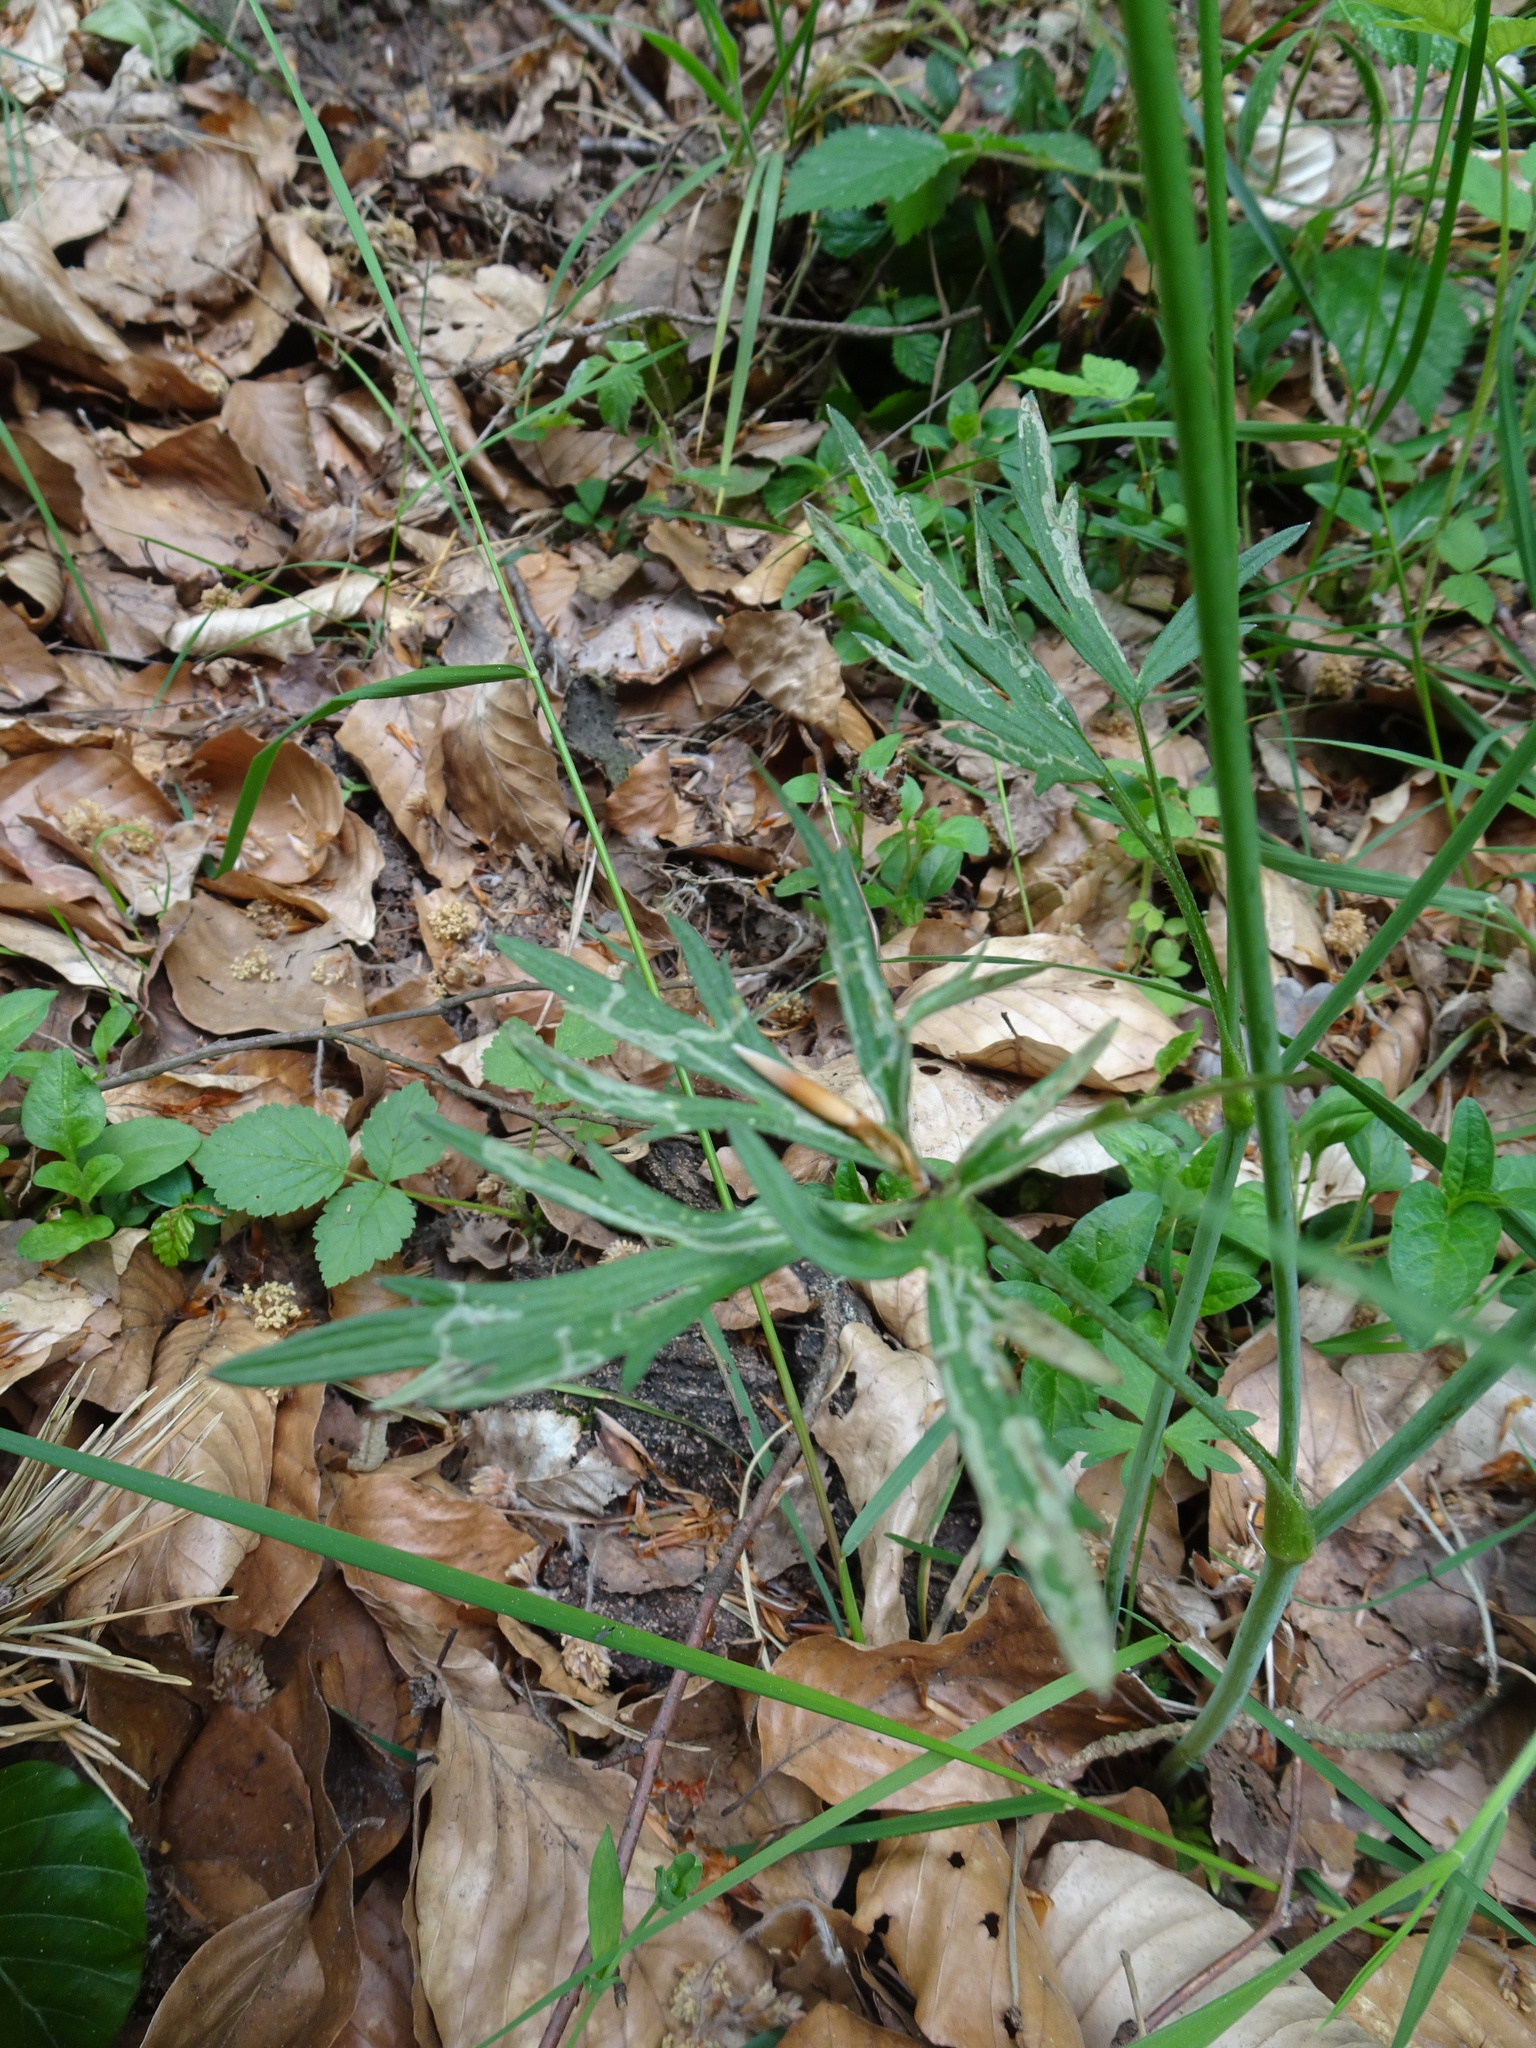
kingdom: Plantae
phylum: Tracheophyta
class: Magnoliopsida
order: Ranunculales
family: Ranunculaceae
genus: Ranunculus
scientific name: Ranunculus acris
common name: Meadow buttercup
